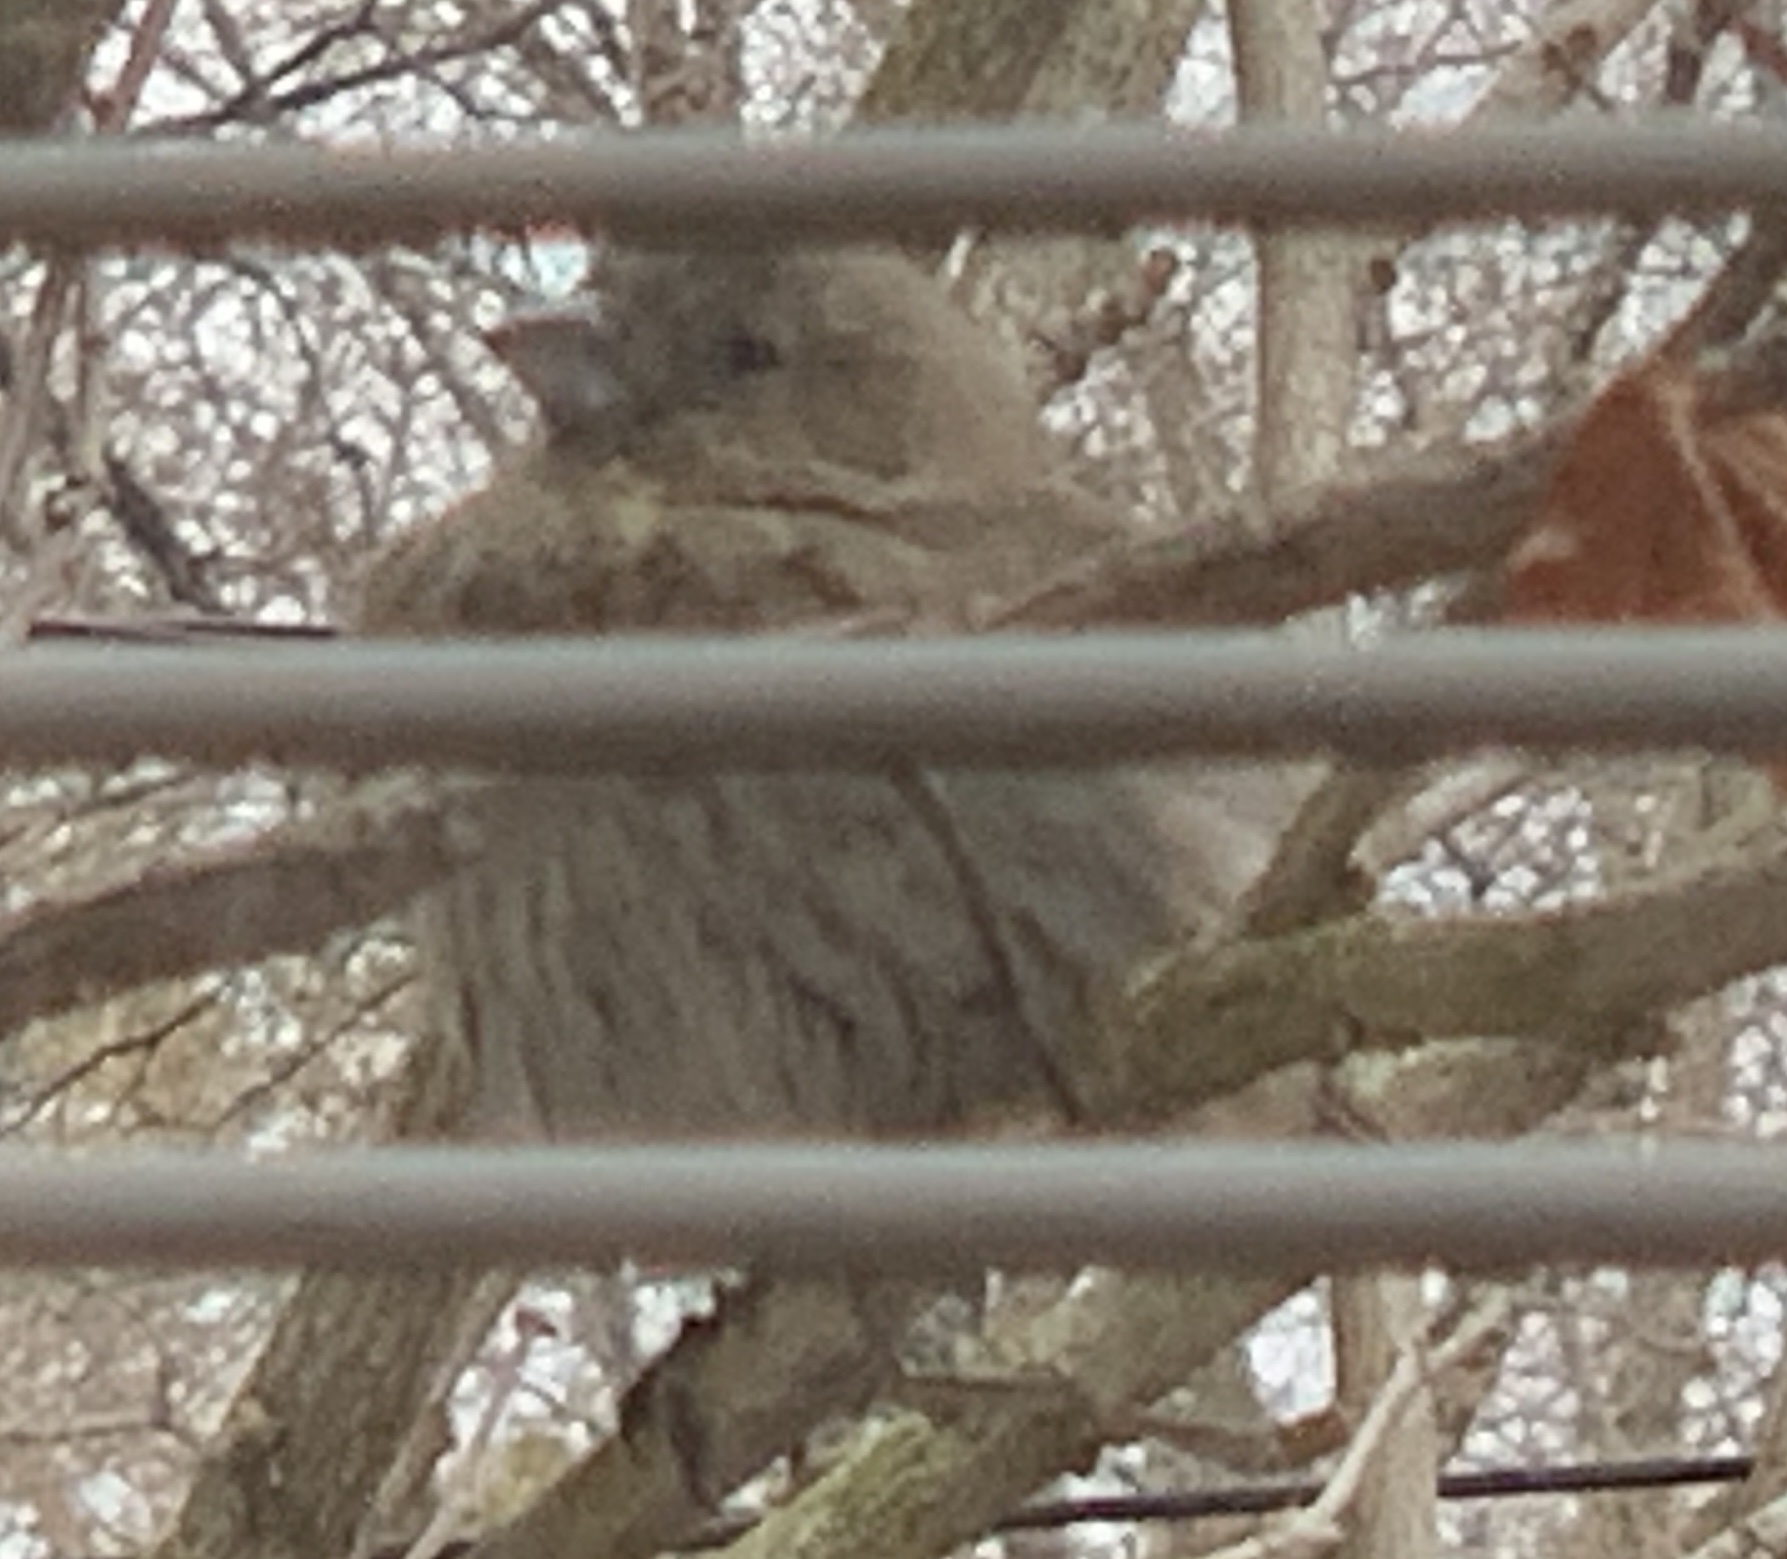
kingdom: Animalia
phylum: Chordata
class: Aves
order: Passeriformes
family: Fringillidae
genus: Haemorhous
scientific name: Haemorhous mexicanus
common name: House finch
